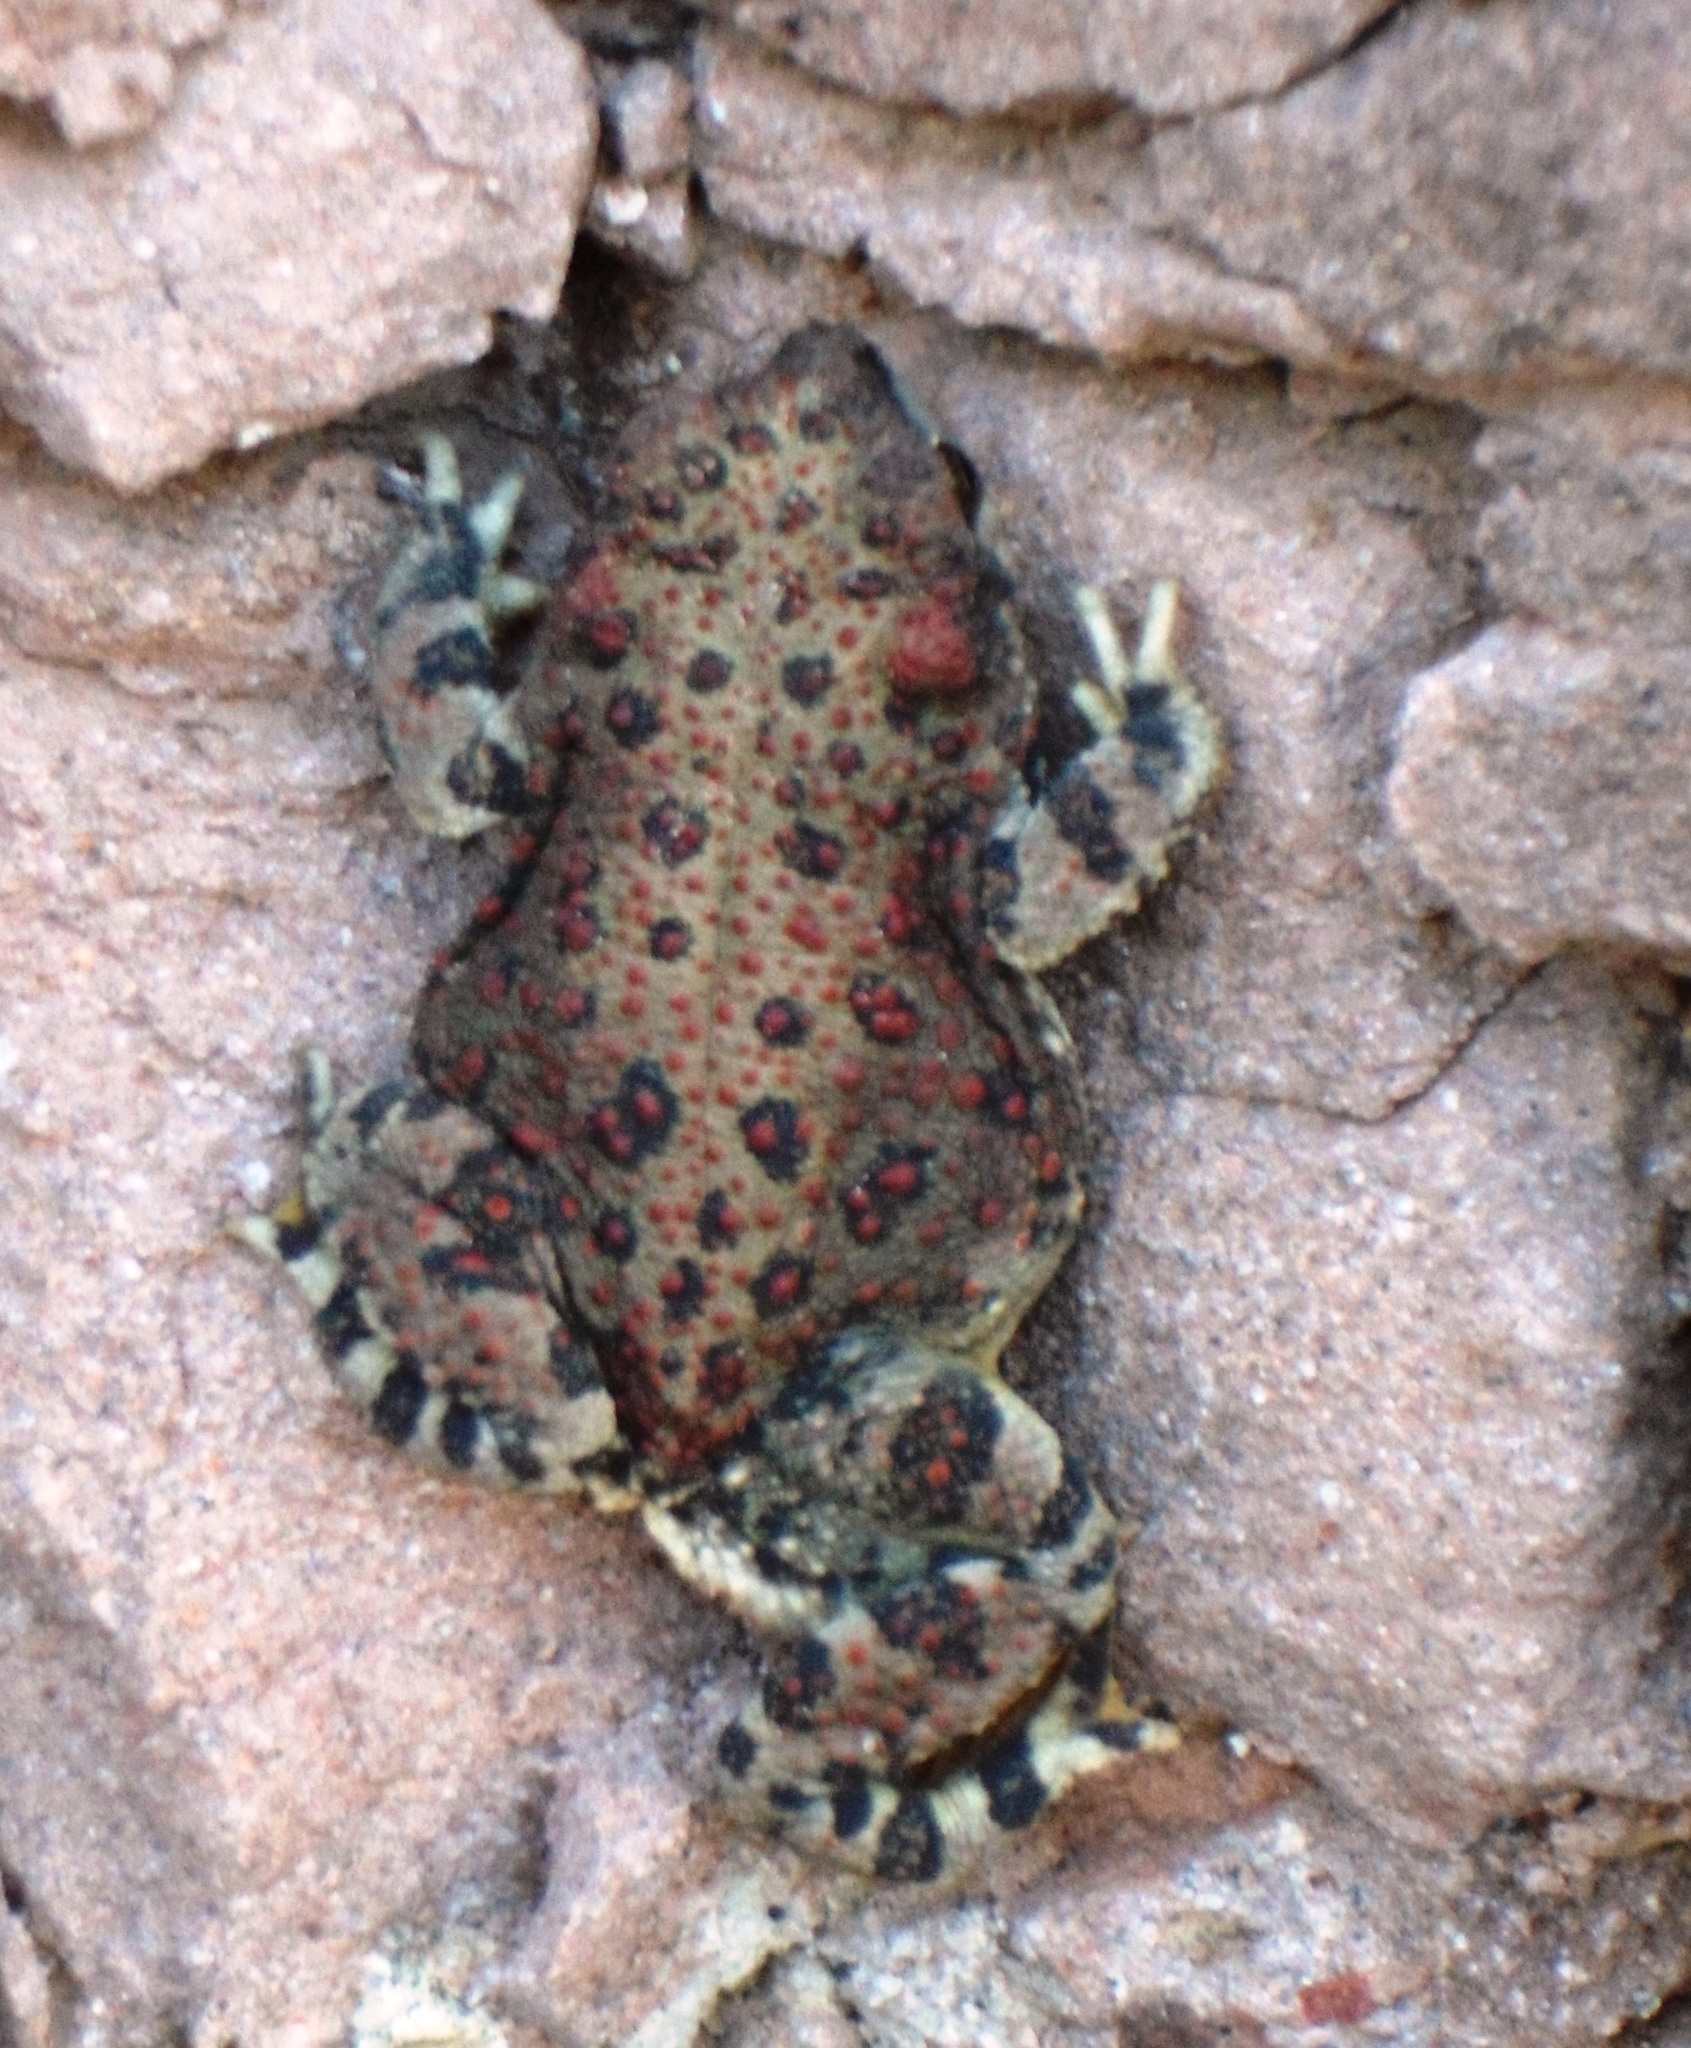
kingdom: Animalia
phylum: Chordata
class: Amphibia
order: Anura
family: Bufonidae
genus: Anaxyrus
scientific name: Anaxyrus punctatus
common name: Red-spotted toad
